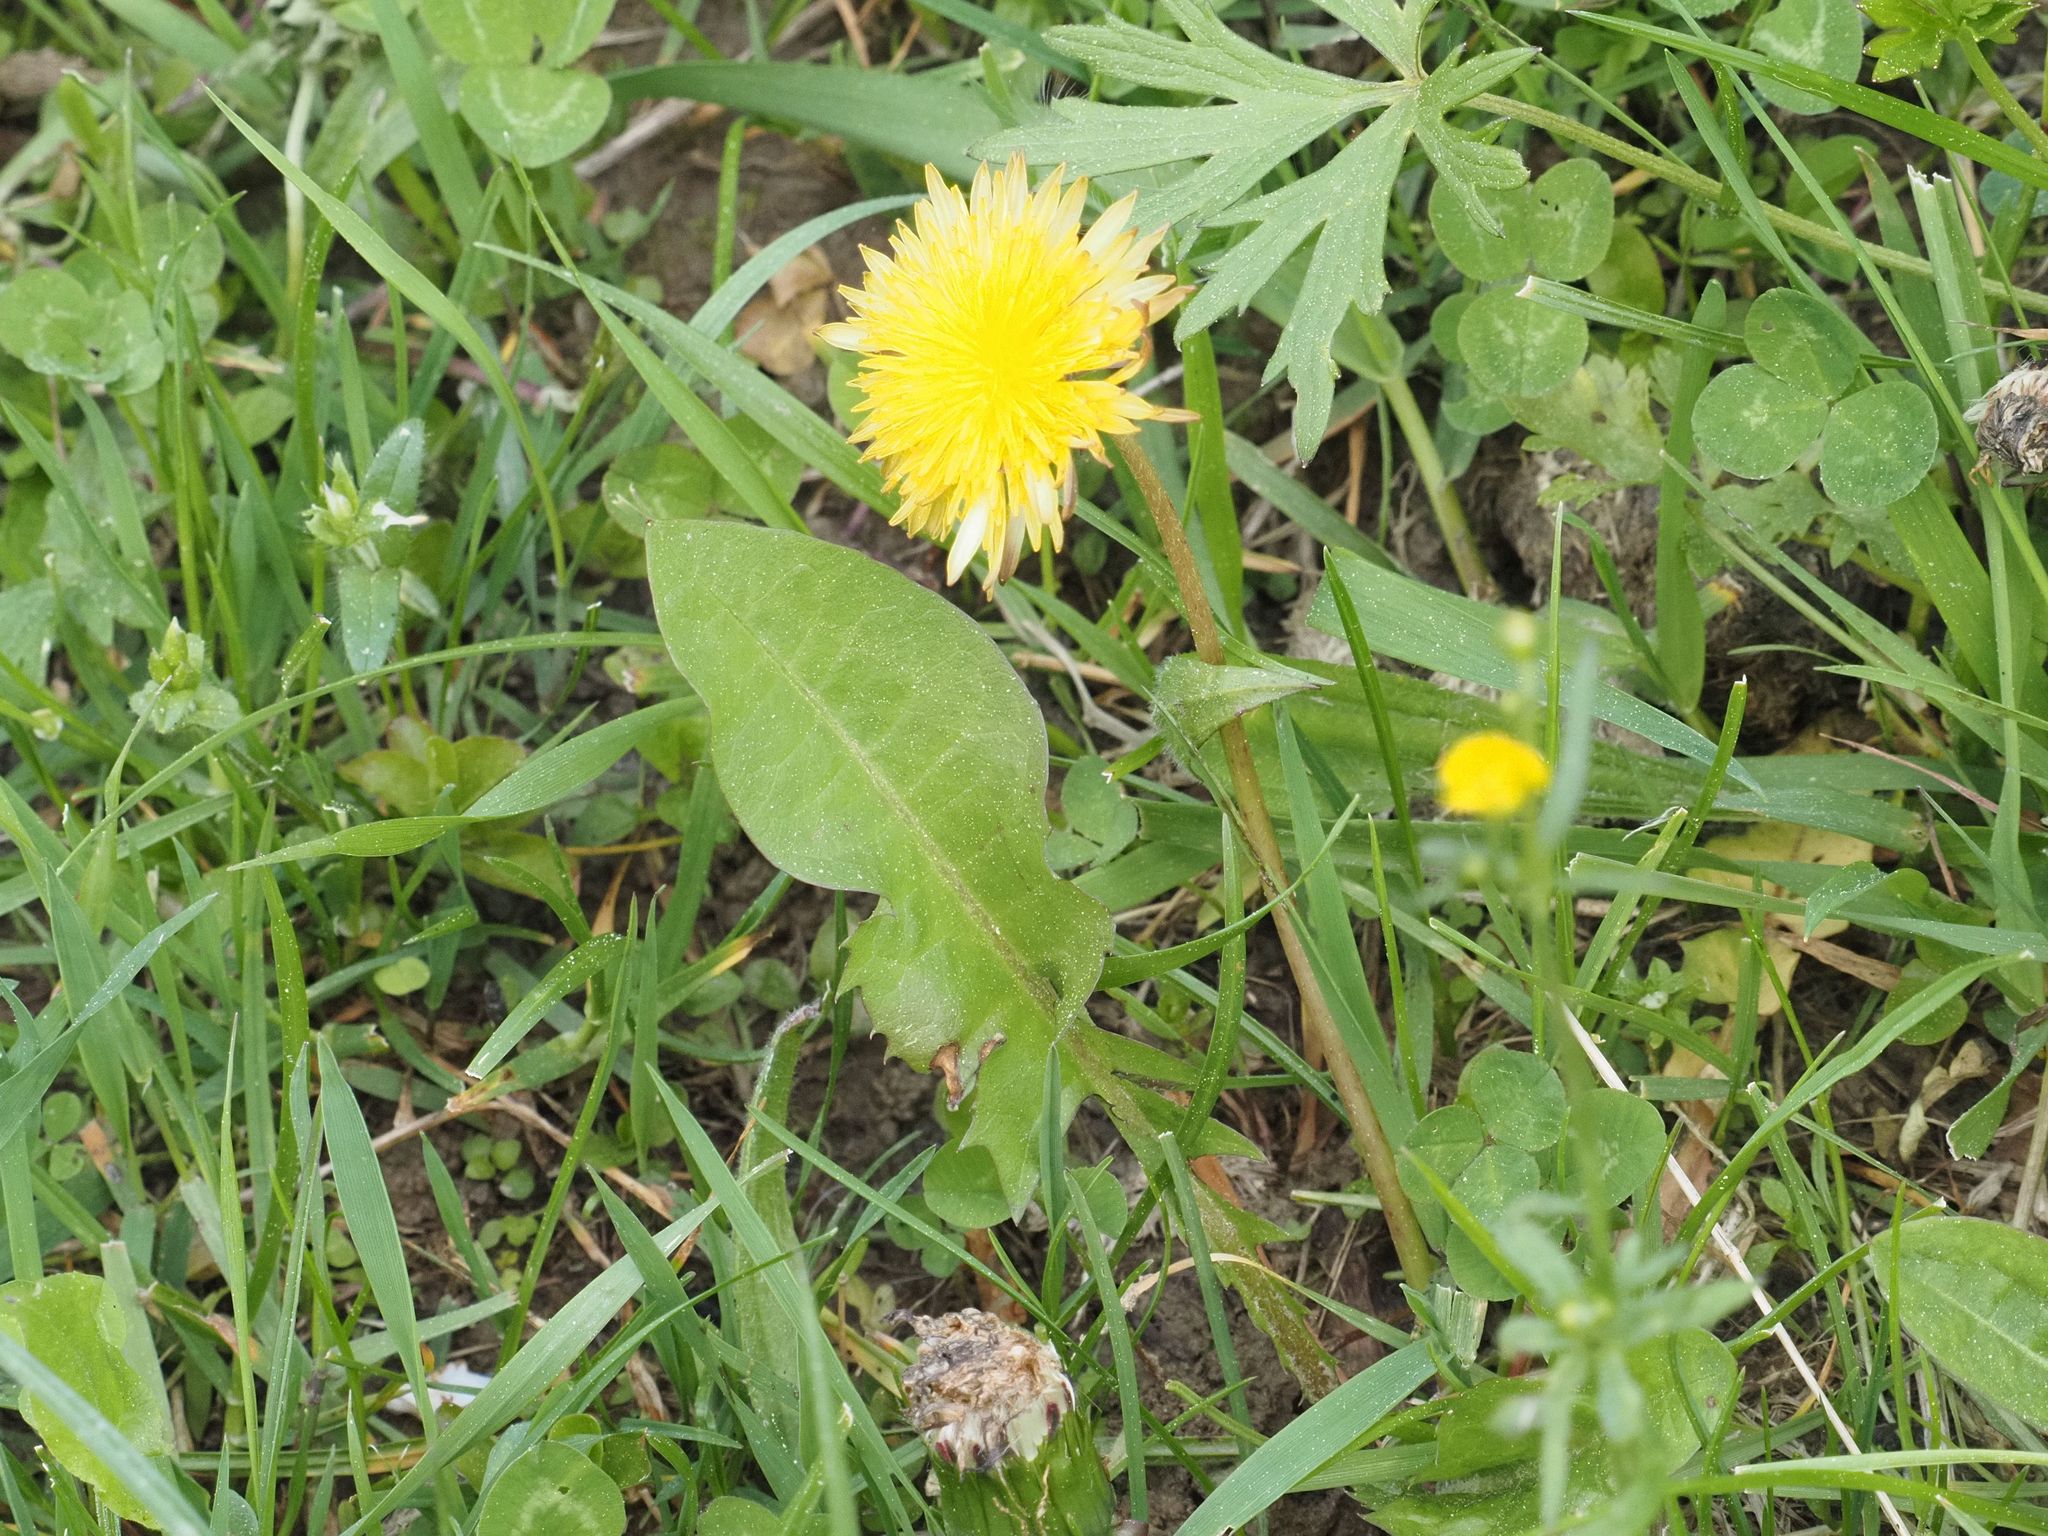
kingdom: Plantae
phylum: Tracheophyta
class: Magnoliopsida
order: Asterales
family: Asteraceae
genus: Taraxacum
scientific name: Taraxacum
